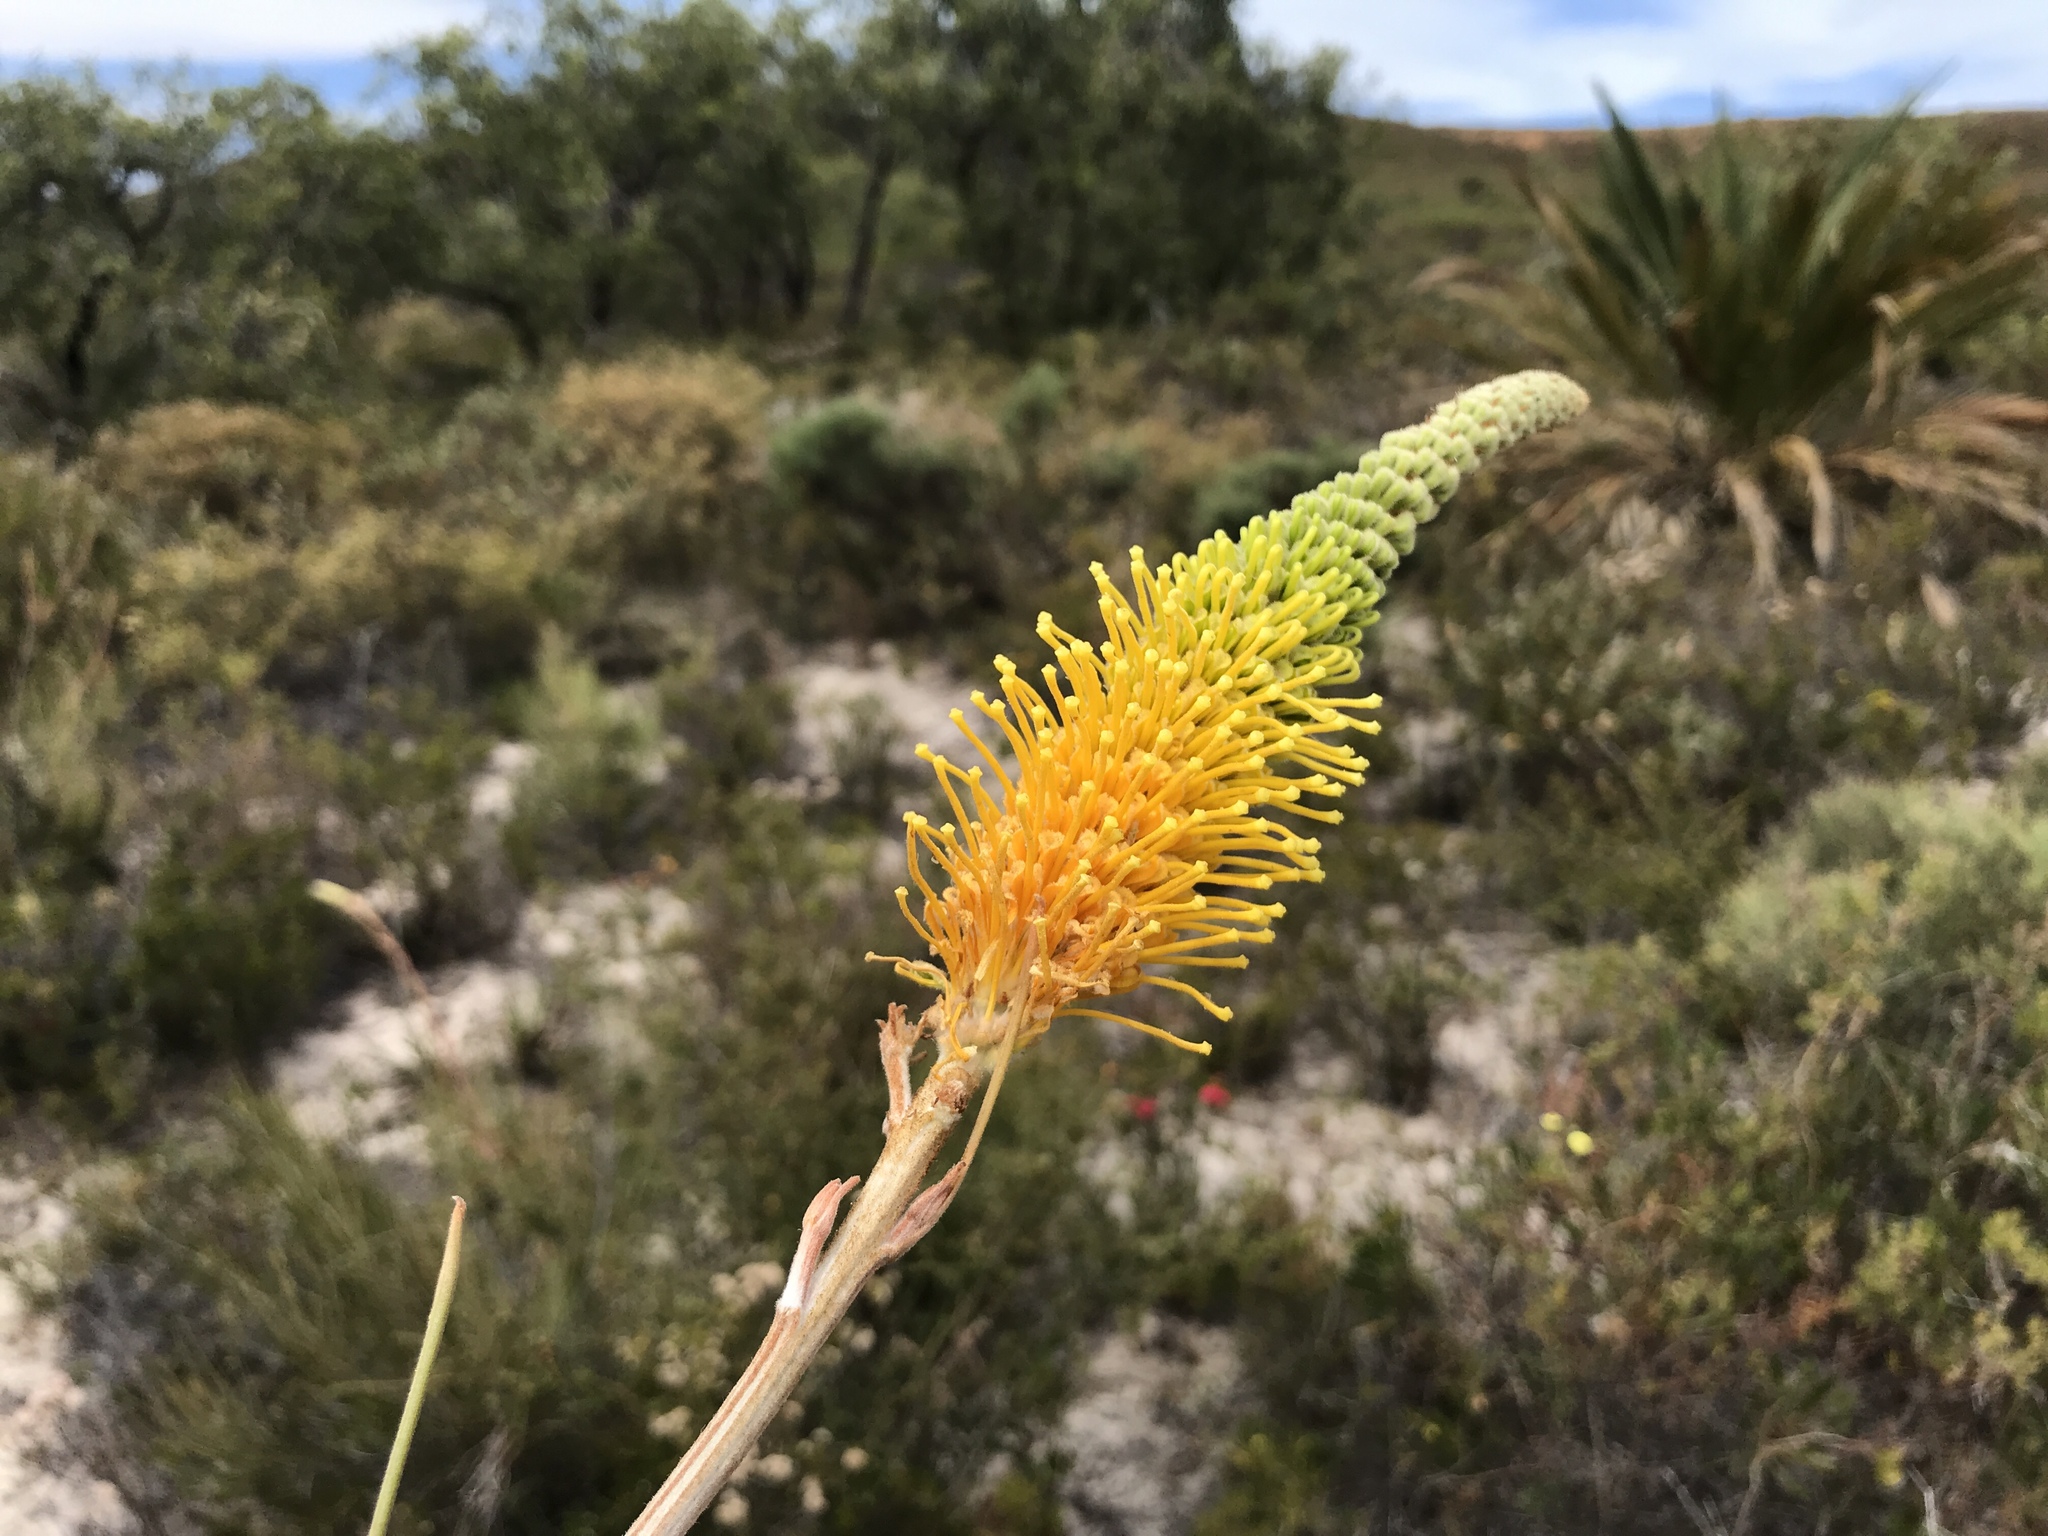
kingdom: Plantae
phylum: Tracheophyta
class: Magnoliopsida
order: Proteales
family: Proteaceae
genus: Grevillea
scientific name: Grevillea eriostachya
